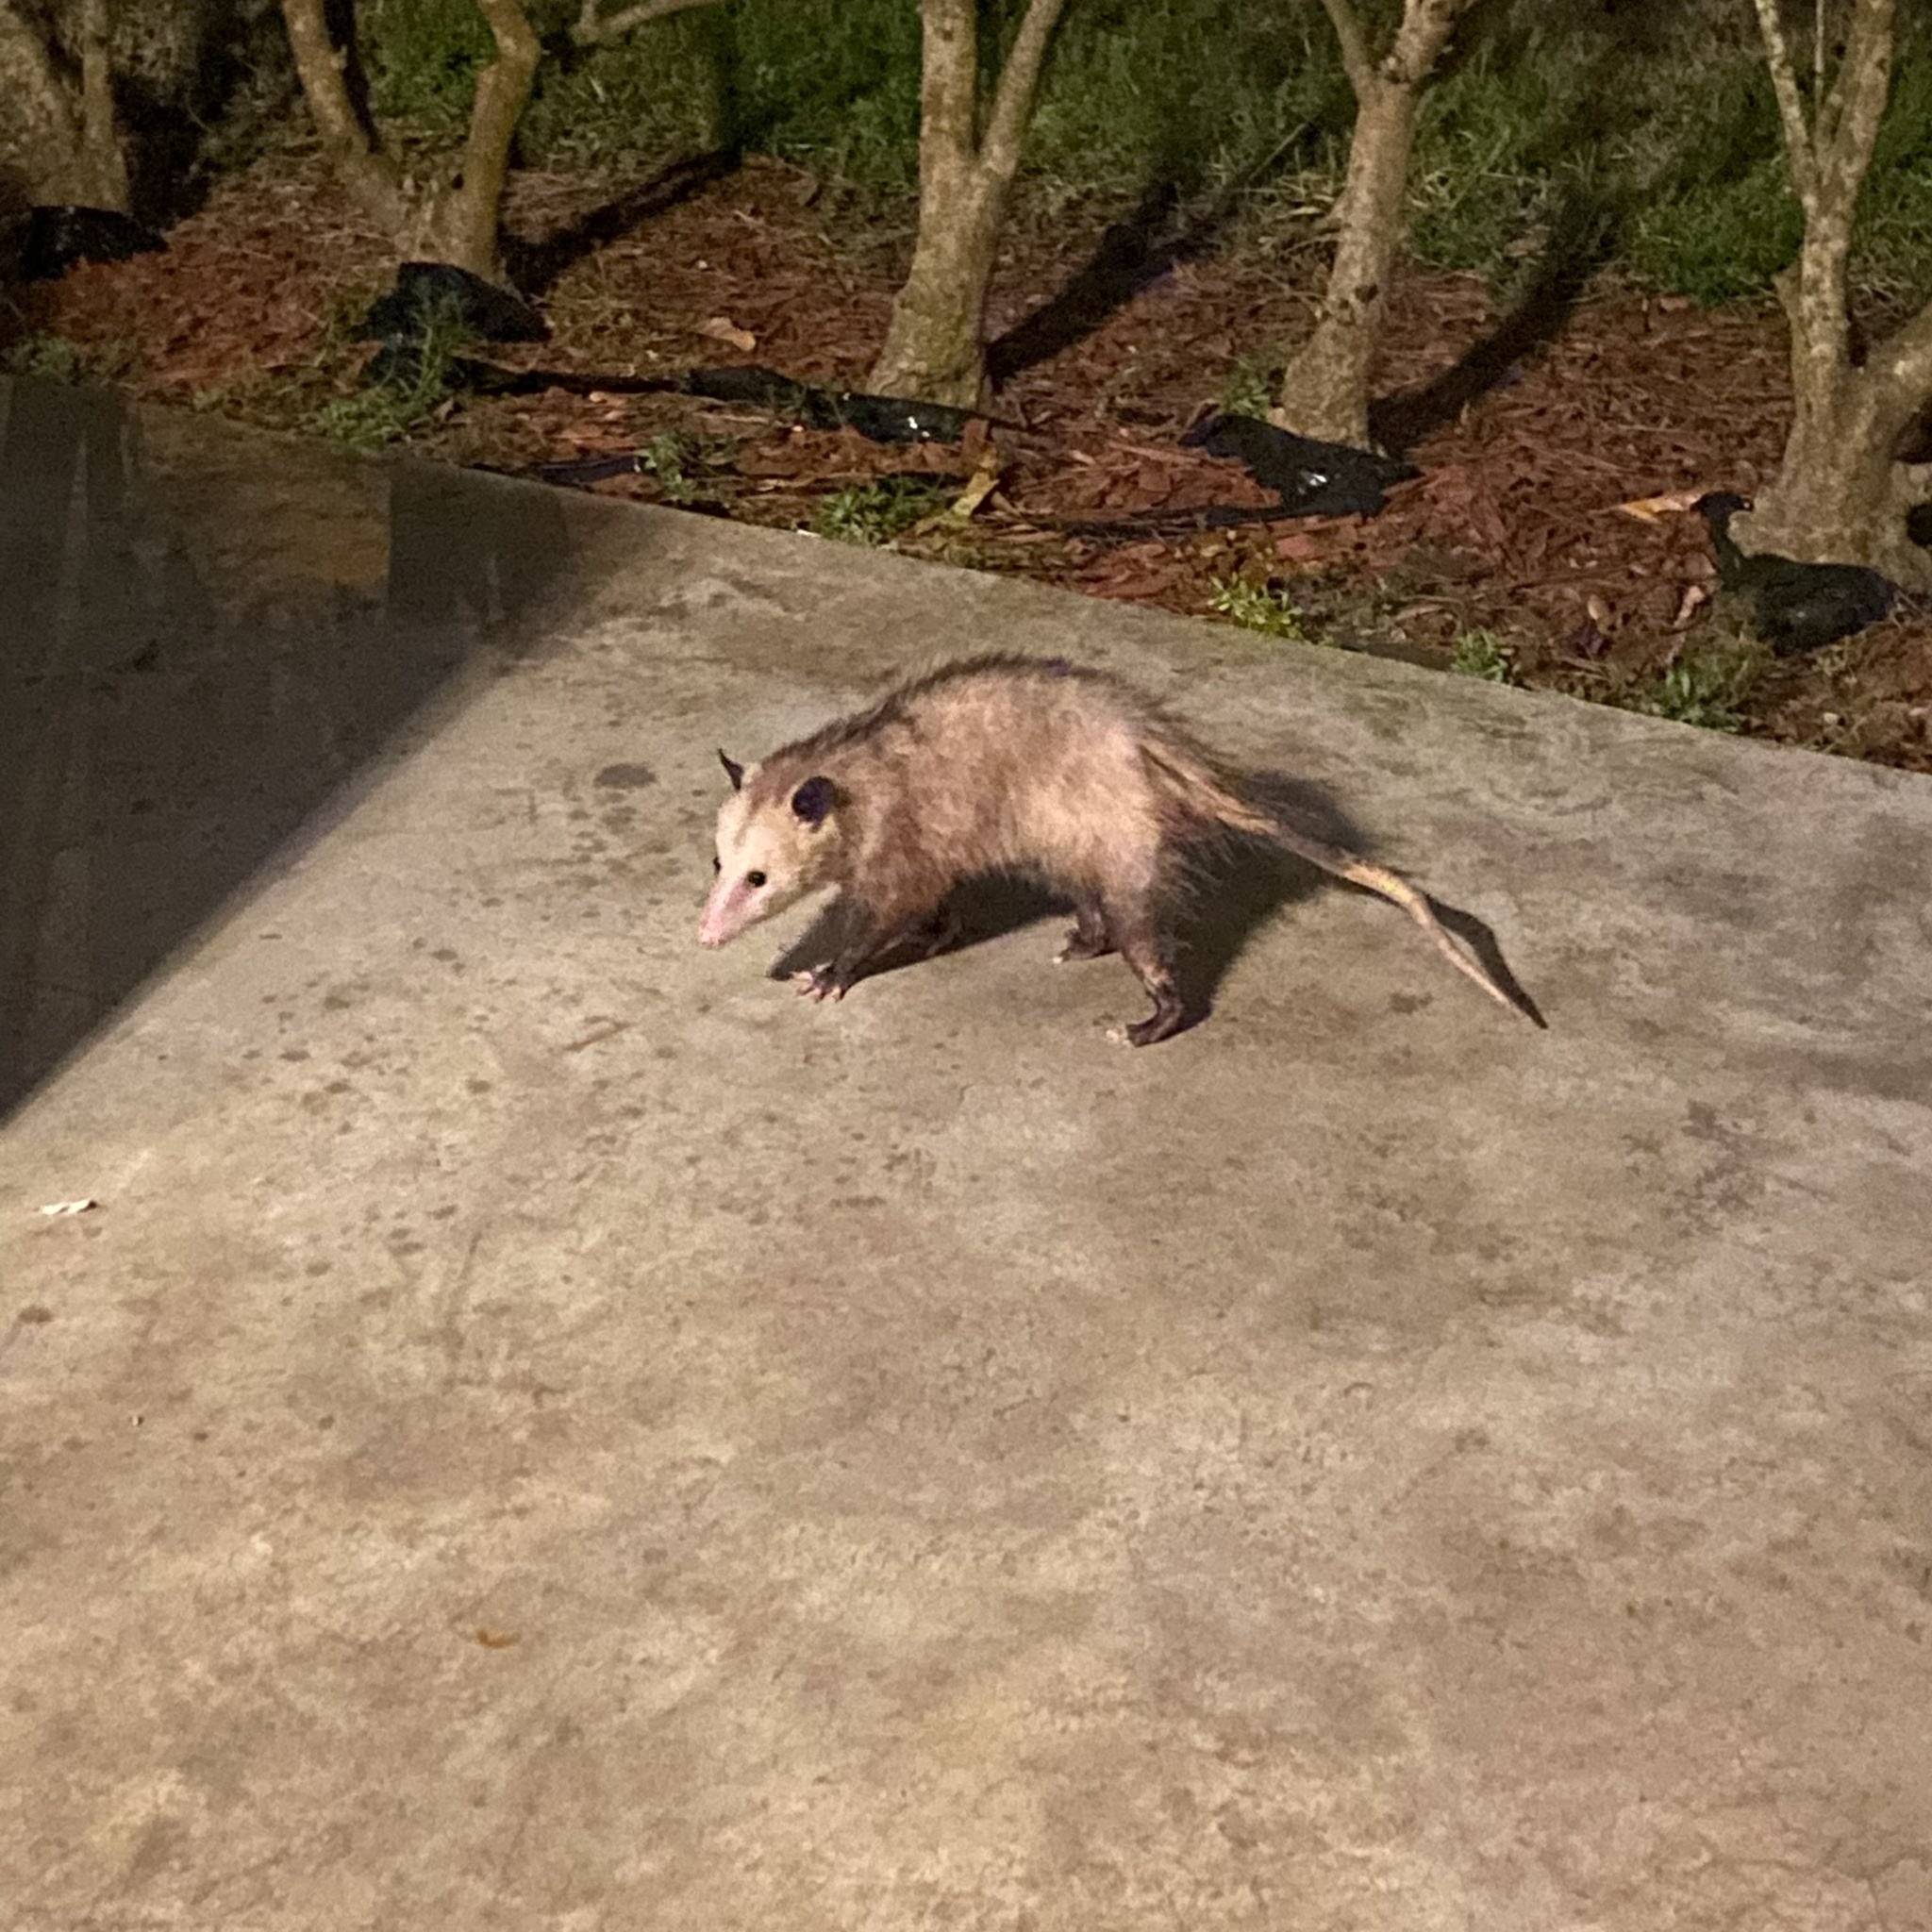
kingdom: Animalia
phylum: Chordata
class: Mammalia
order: Didelphimorphia
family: Didelphidae
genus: Didelphis
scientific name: Didelphis virginiana
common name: Virginia opossum
